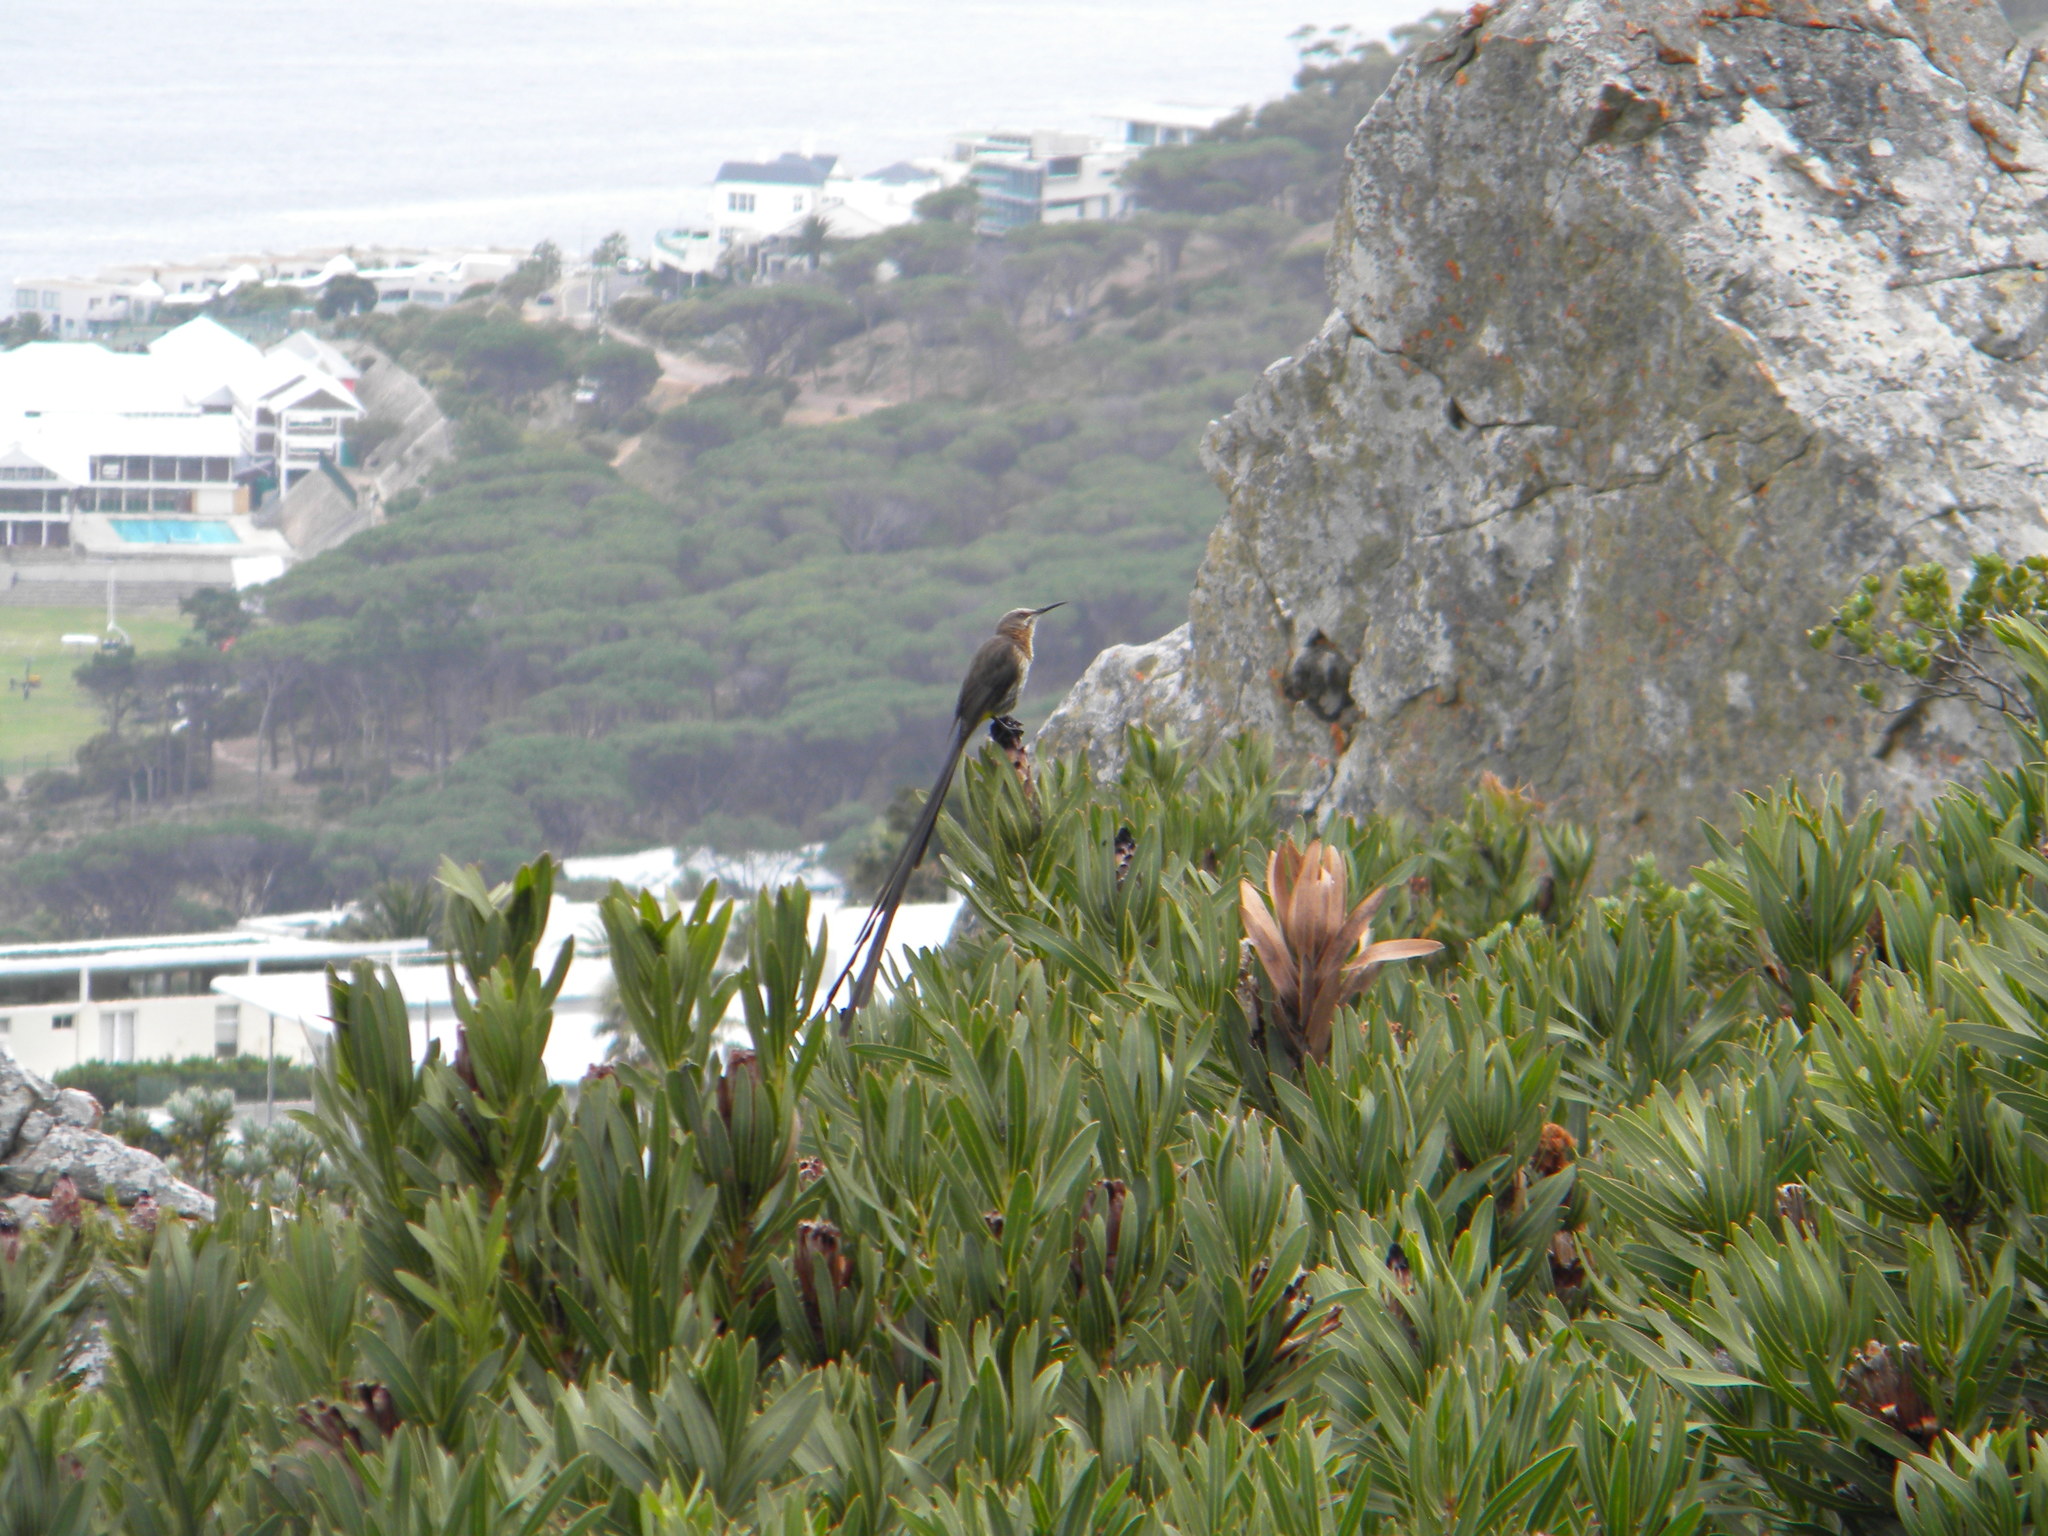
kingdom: Animalia
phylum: Chordata
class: Aves
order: Passeriformes
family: Promeropidae
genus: Promerops
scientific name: Promerops cafer
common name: Cape sugarbird
